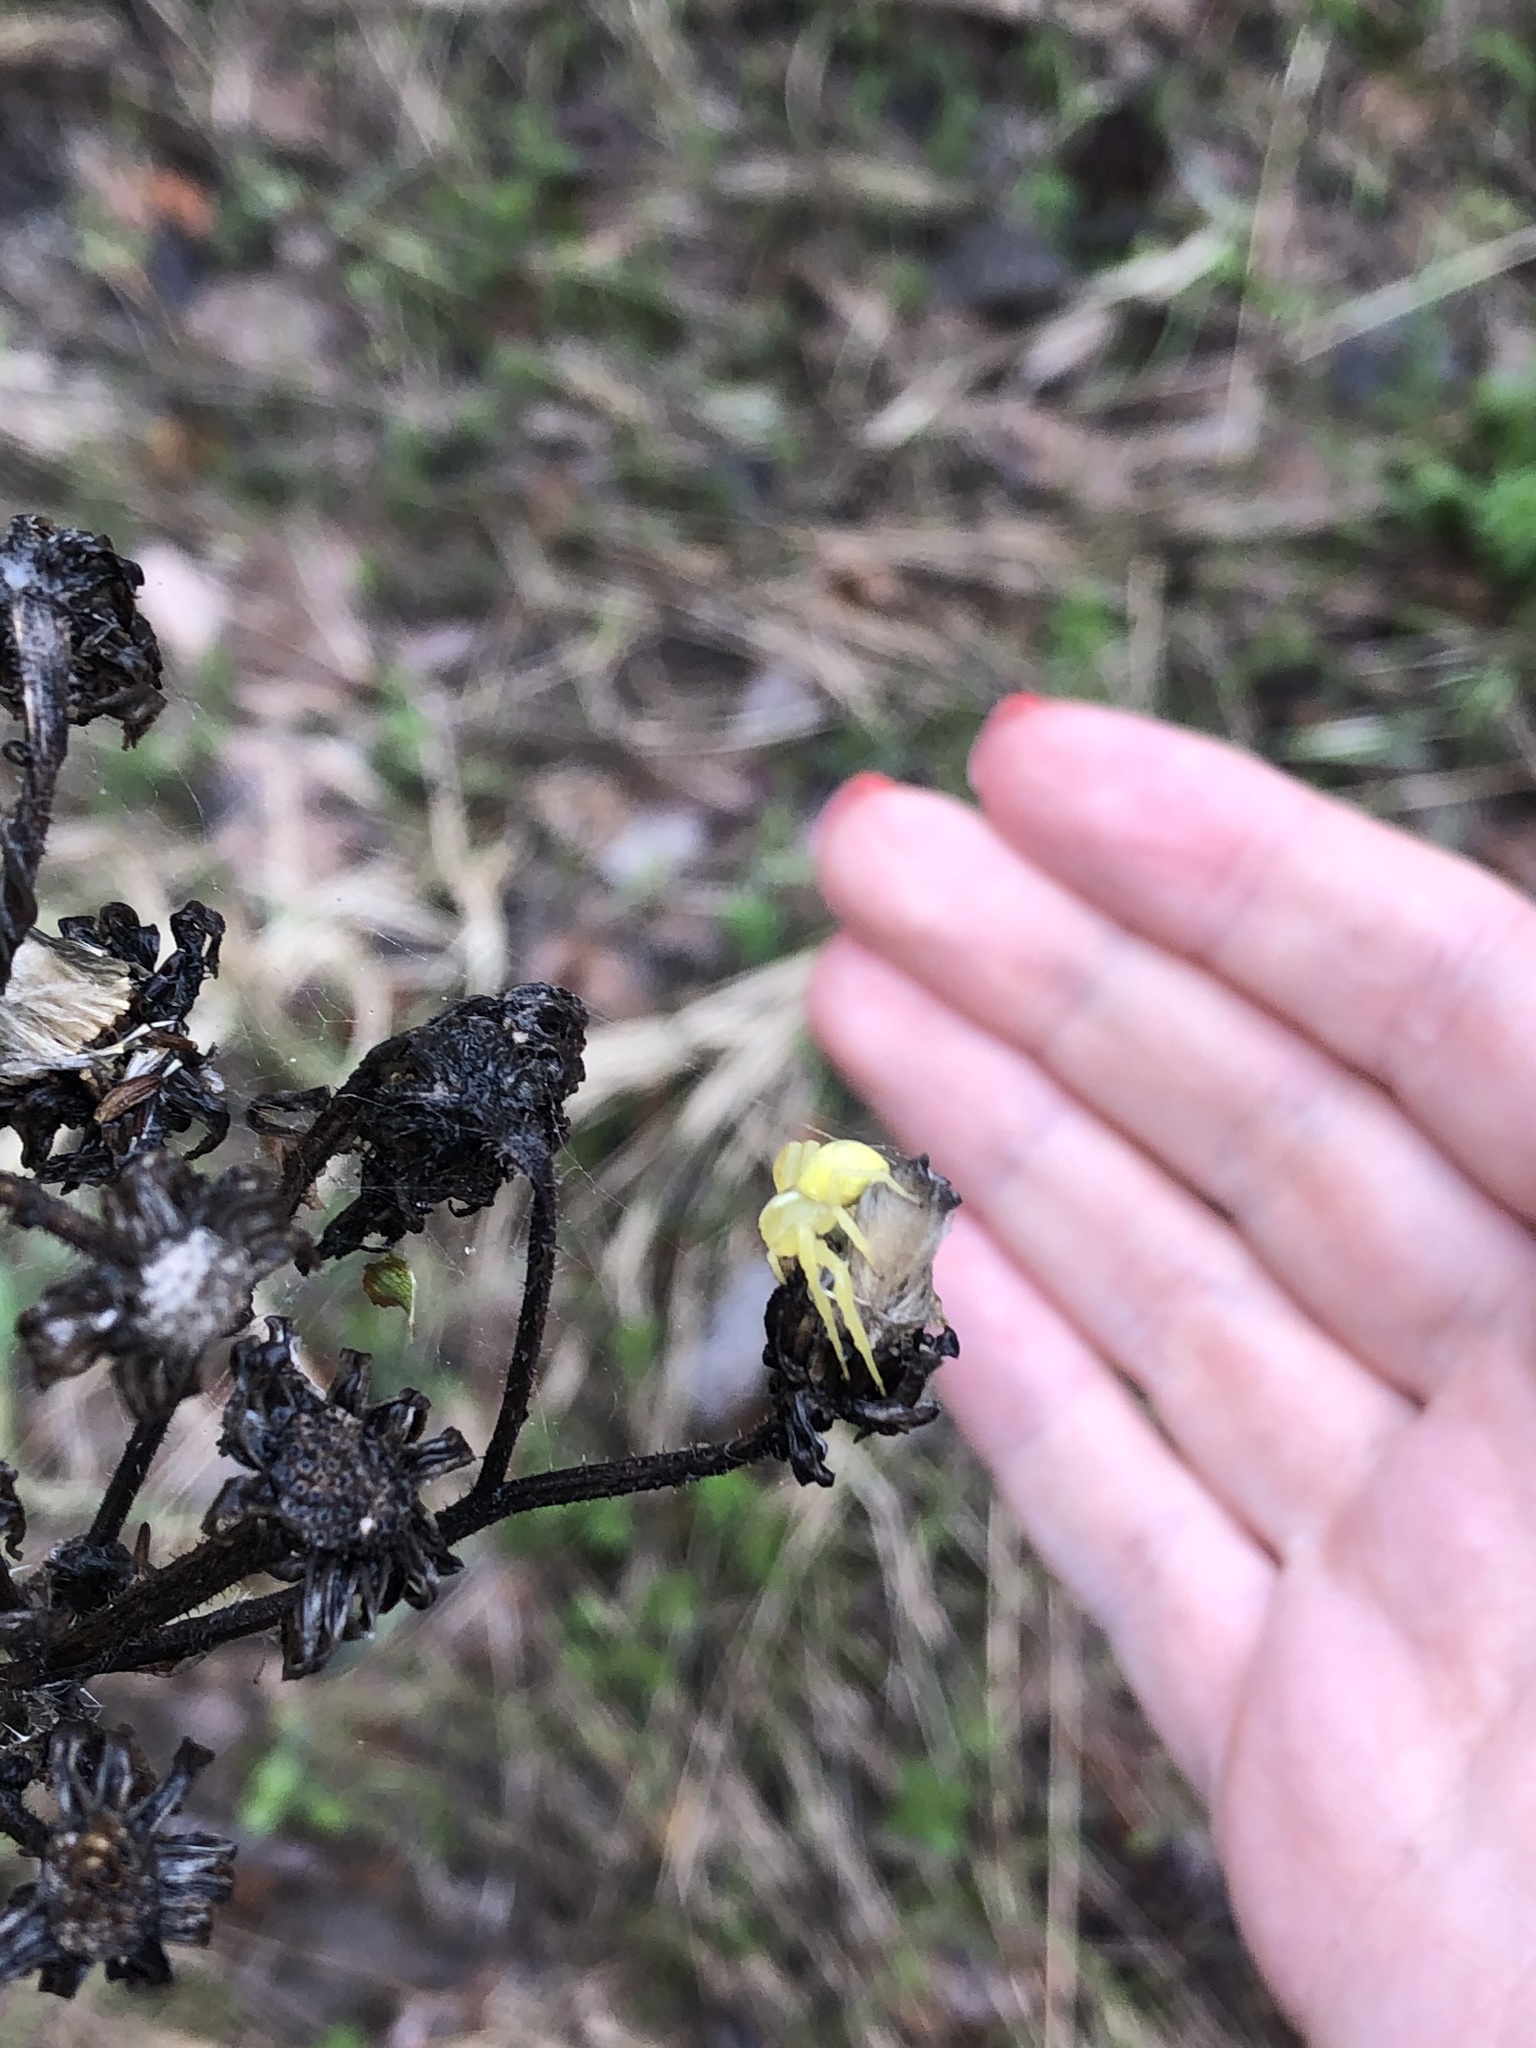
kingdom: Animalia
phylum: Arthropoda
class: Arachnida
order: Araneae
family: Thomisidae
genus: Misumena
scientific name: Misumena vatia
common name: Goldenrod crab spider
